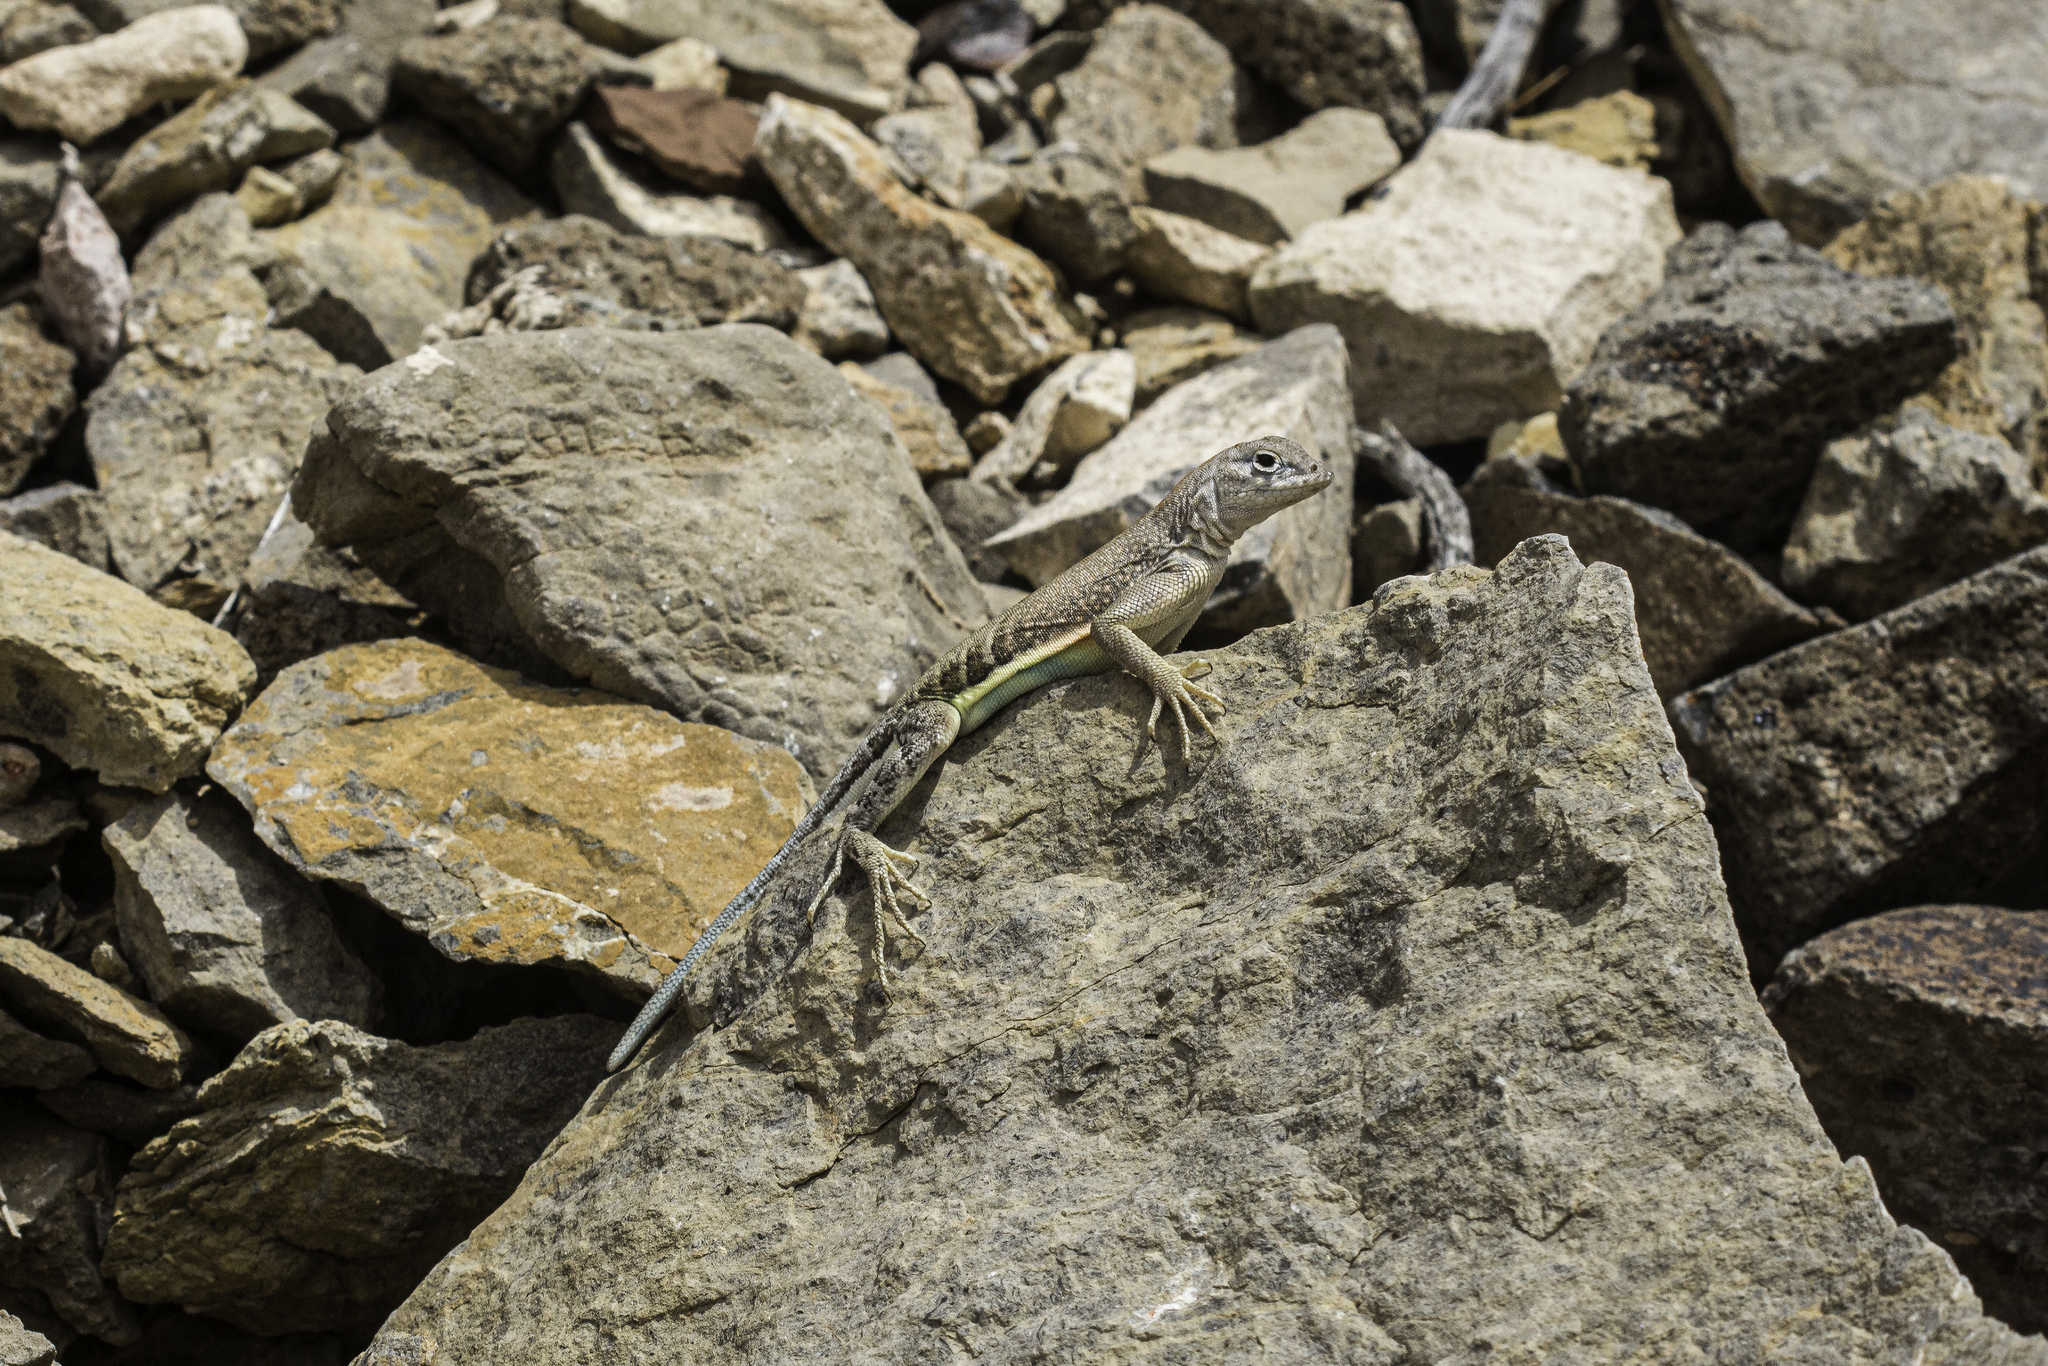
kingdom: Animalia
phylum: Chordata
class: Squamata
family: Phrynosomatidae
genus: Cophosaurus
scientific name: Cophosaurus texanus
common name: Greater earless lizard
